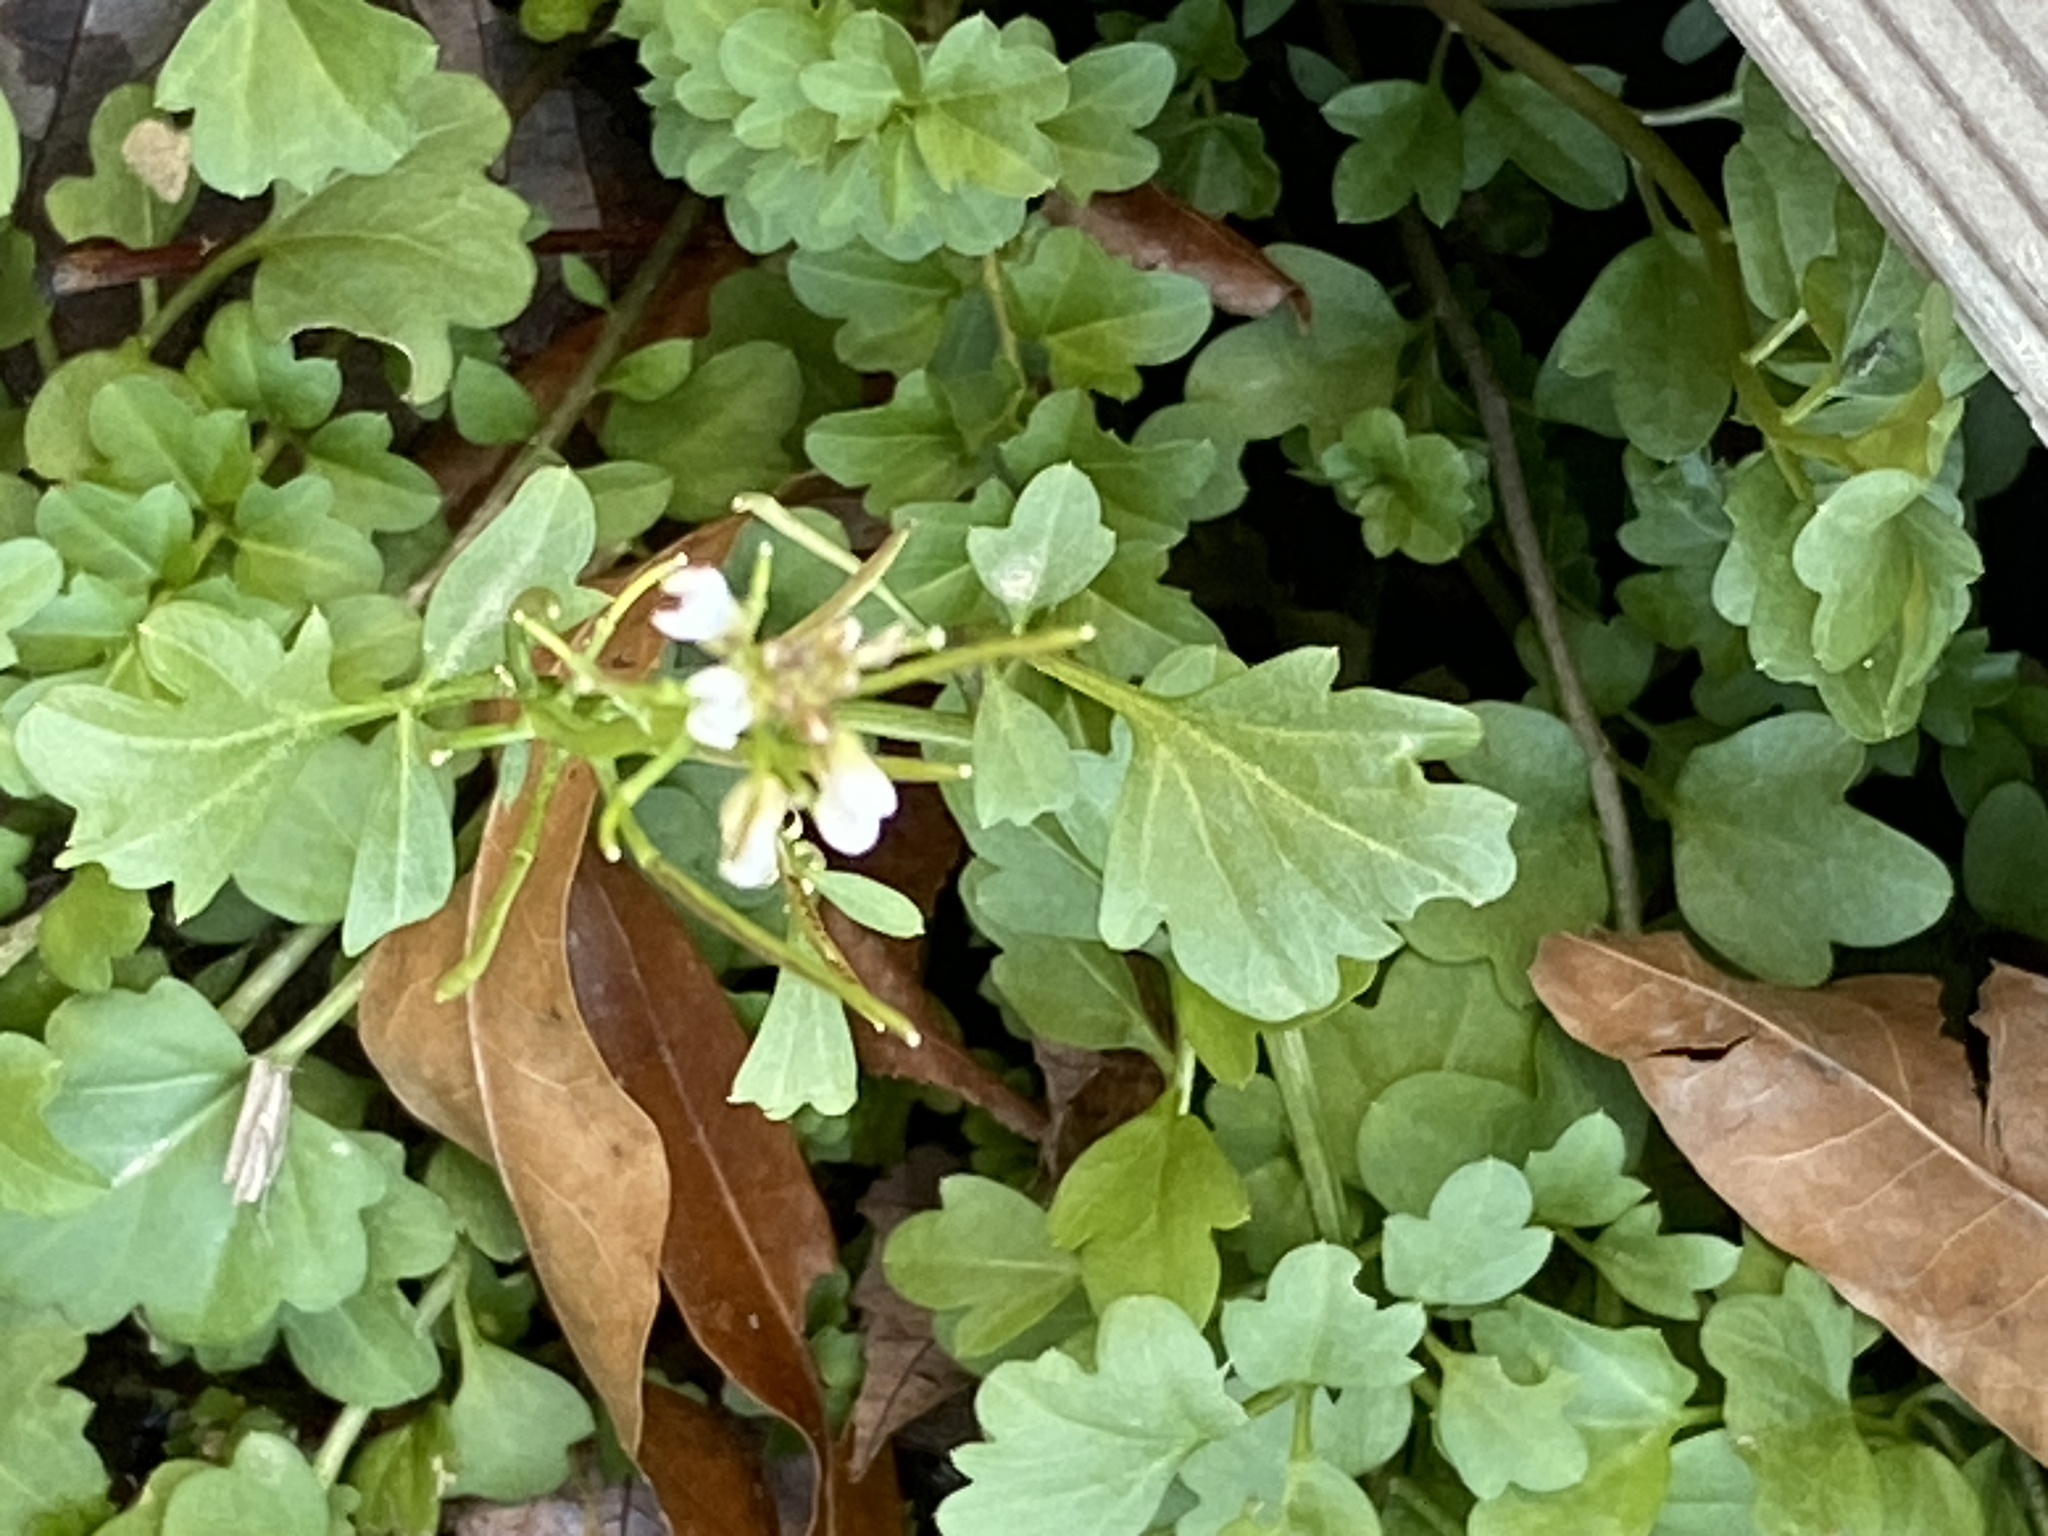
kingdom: Plantae
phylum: Tracheophyta
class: Magnoliopsida
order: Brassicales
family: Brassicaceae
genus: Cardamine
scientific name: Cardamine hirsuta
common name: Hairy bittercress
